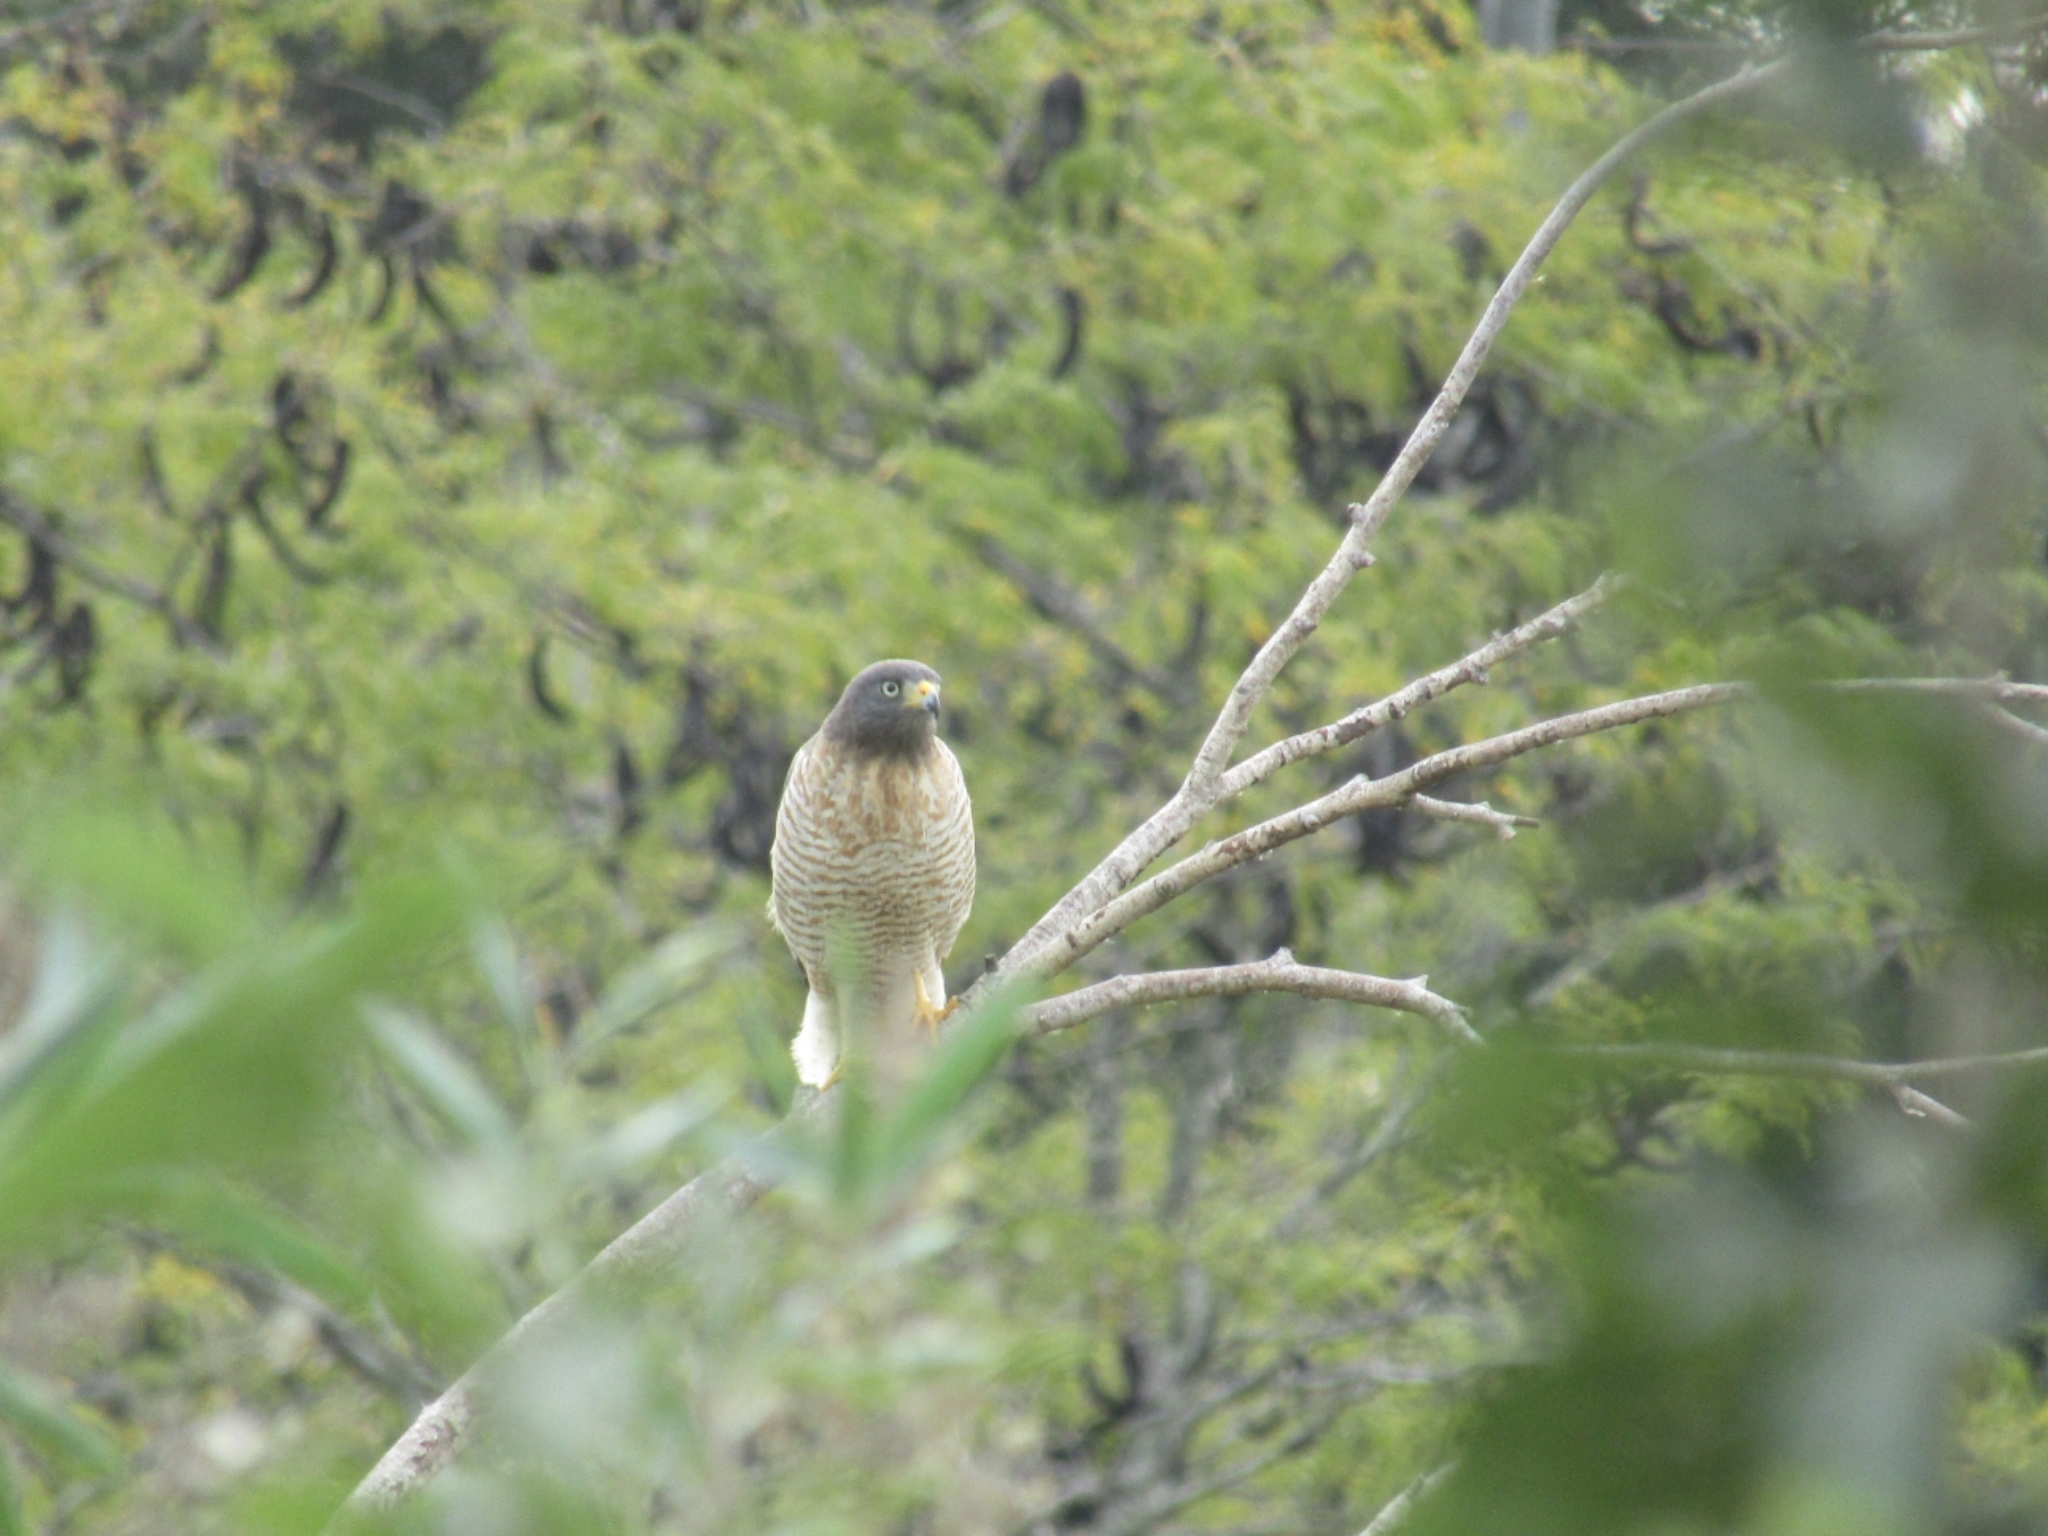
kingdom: Animalia
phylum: Chordata
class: Aves
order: Accipitriformes
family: Accipitridae
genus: Rupornis
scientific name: Rupornis magnirostris
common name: Roadside hawk
